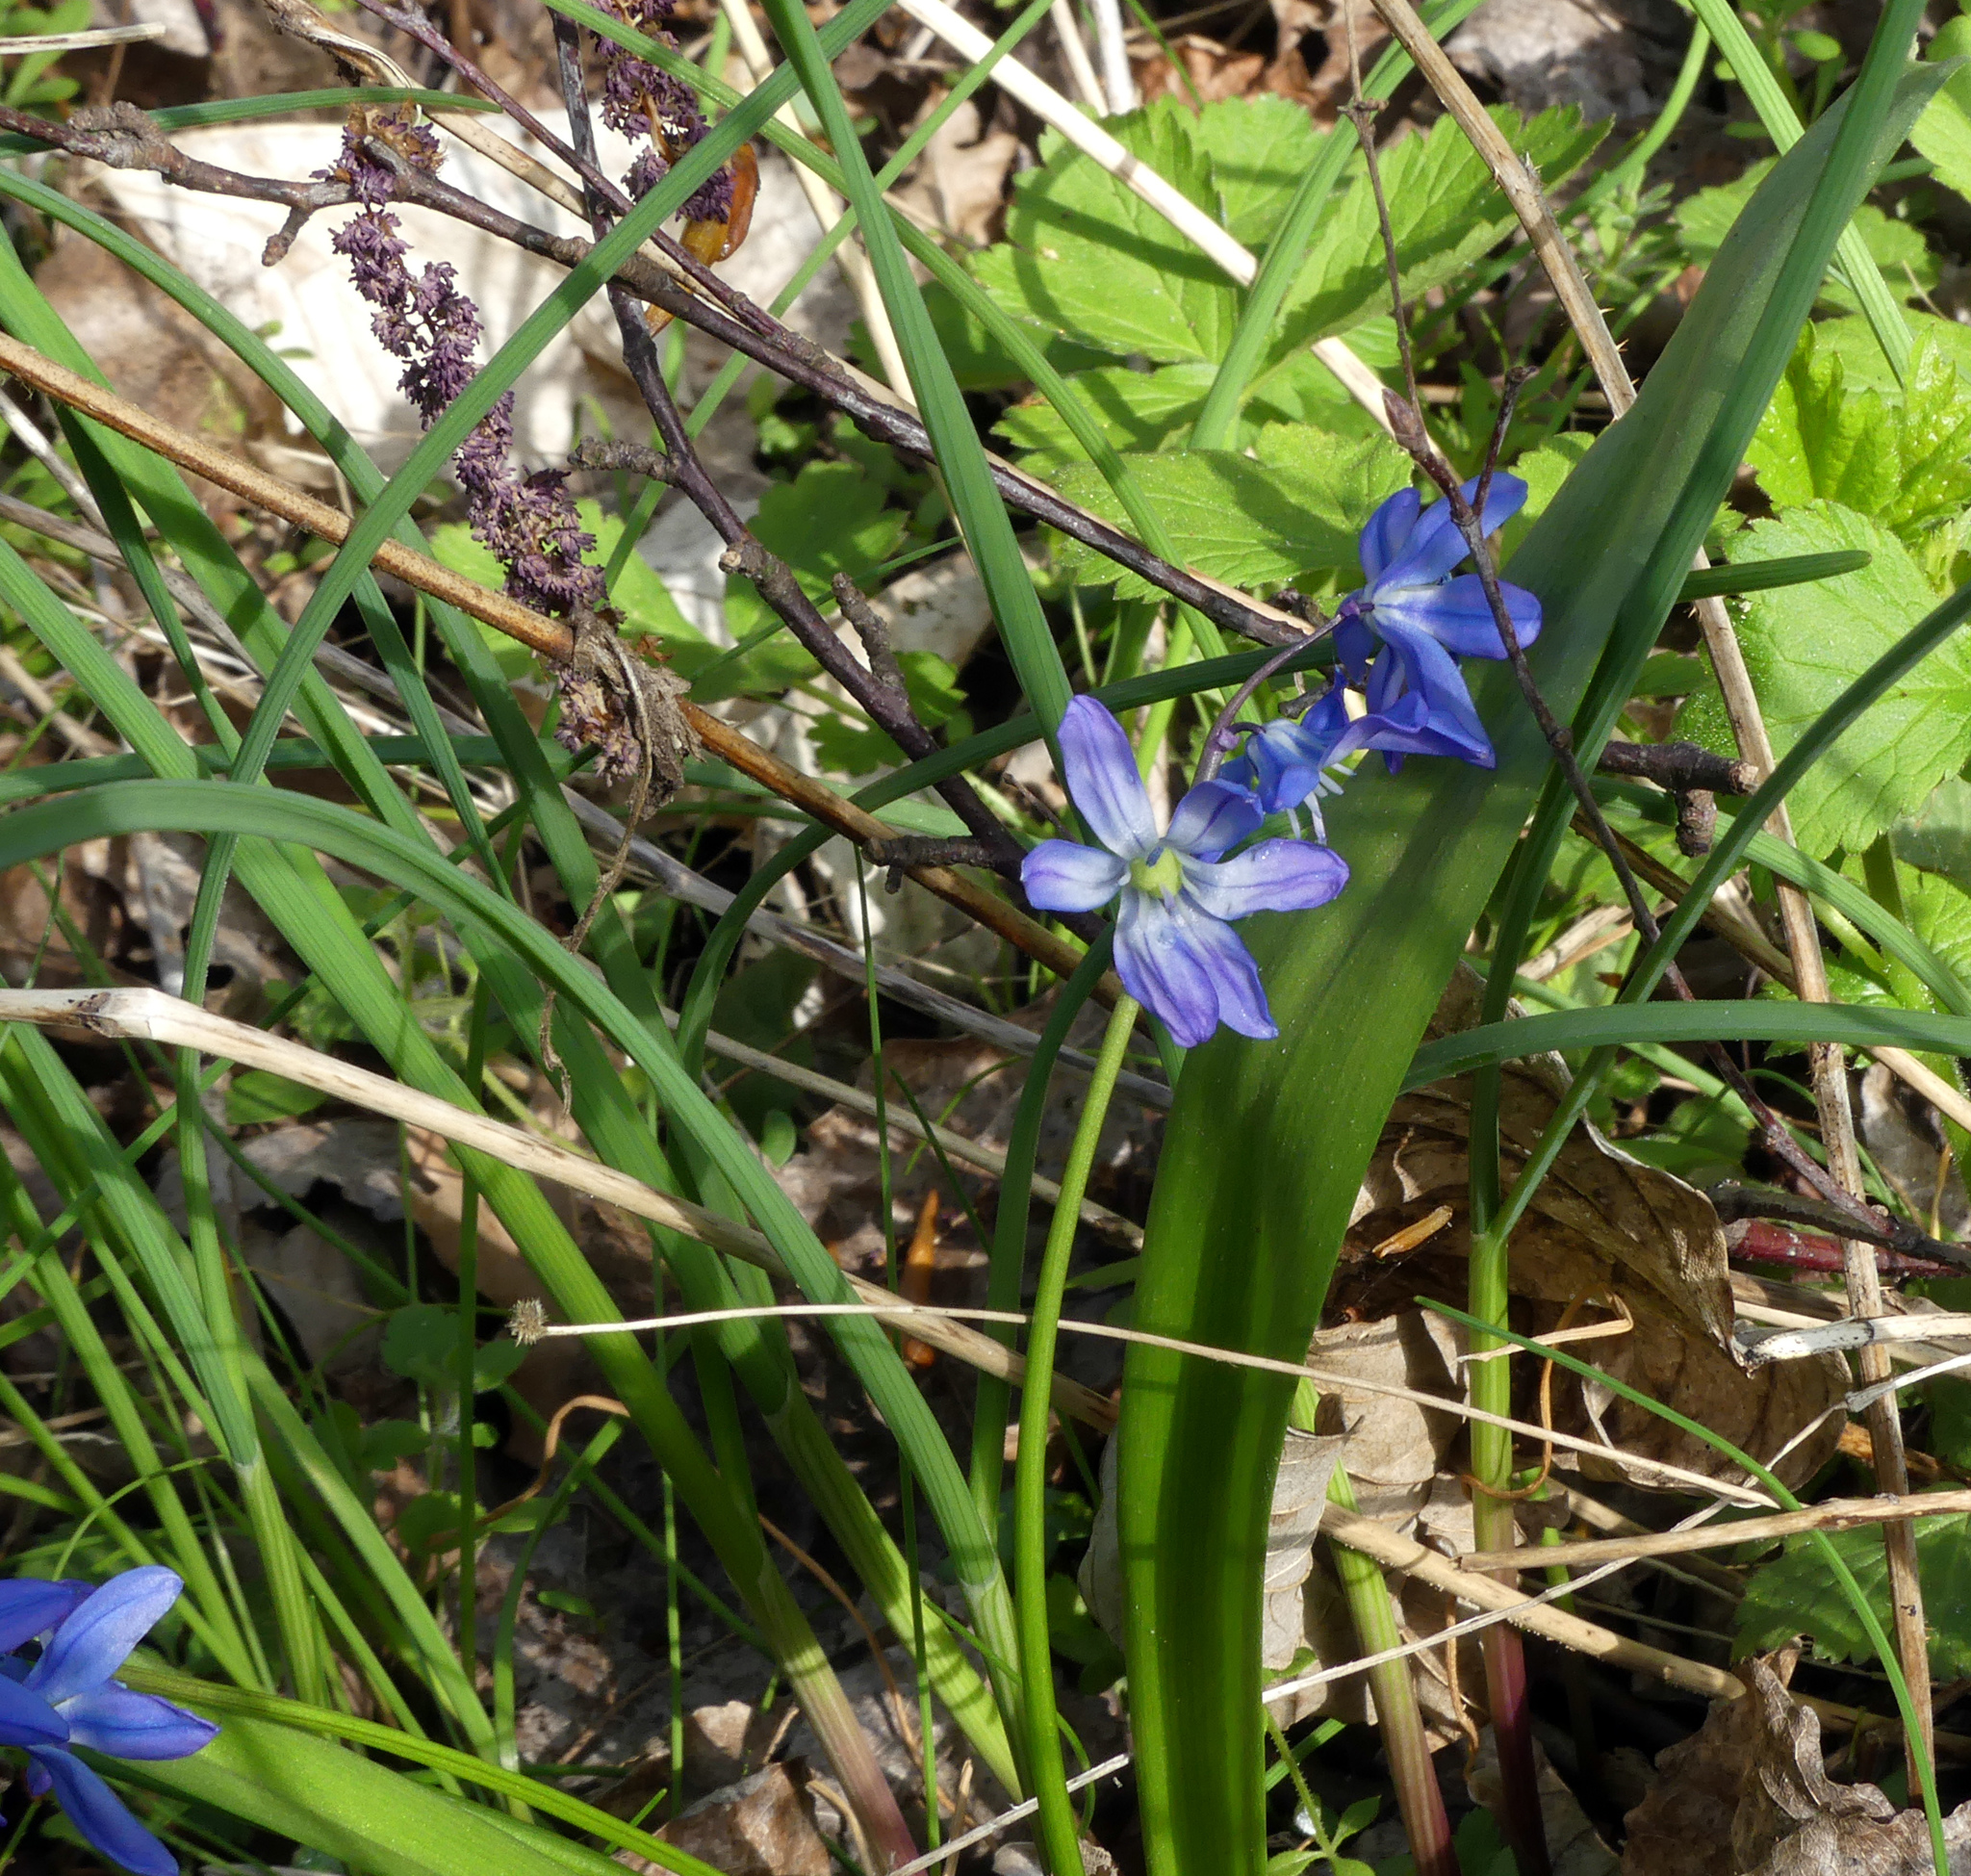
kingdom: Plantae
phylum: Tracheophyta
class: Liliopsida
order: Asparagales
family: Asparagaceae
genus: Scilla
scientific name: Scilla siberica
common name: Siberian squill
